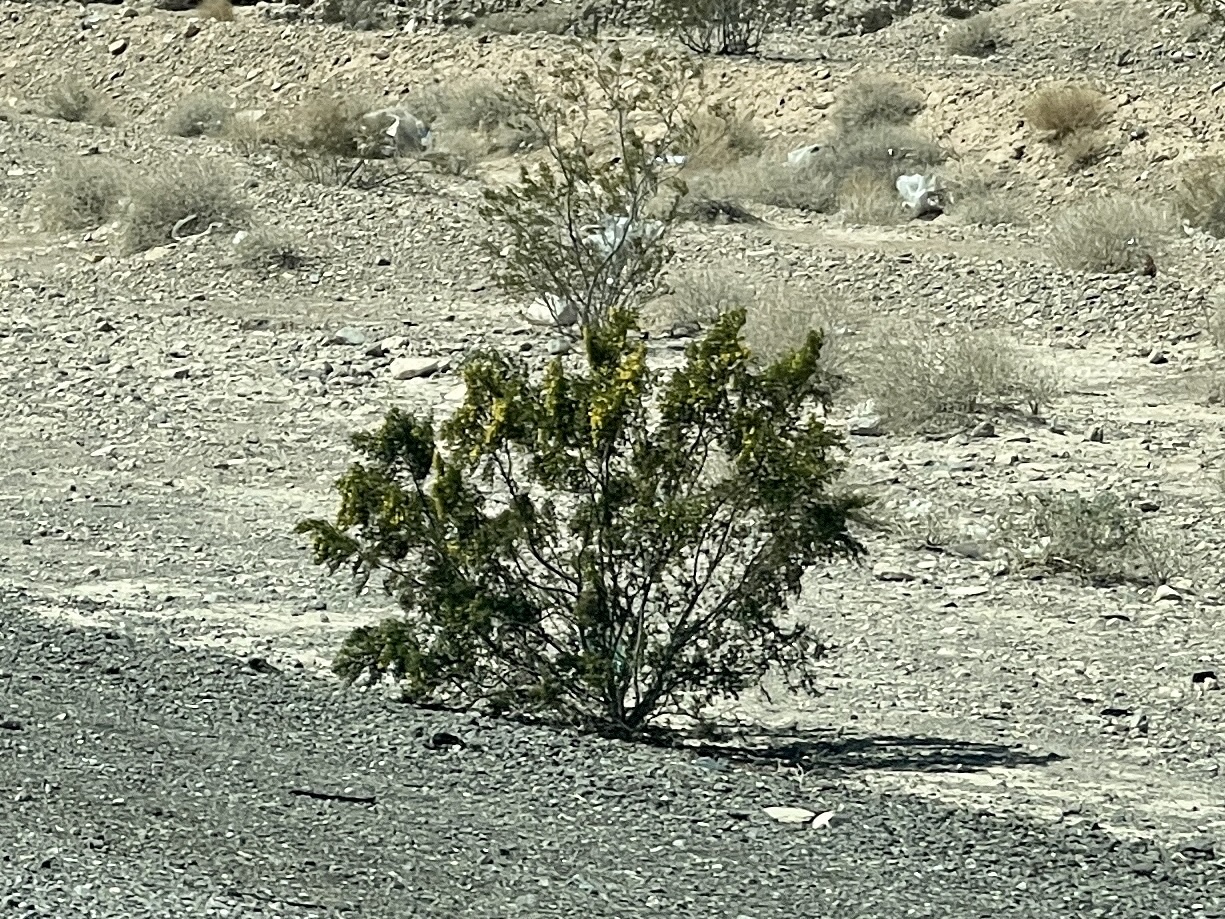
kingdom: Plantae
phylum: Tracheophyta
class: Magnoliopsida
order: Zygophyllales
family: Zygophyllaceae
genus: Larrea
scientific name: Larrea tridentata
